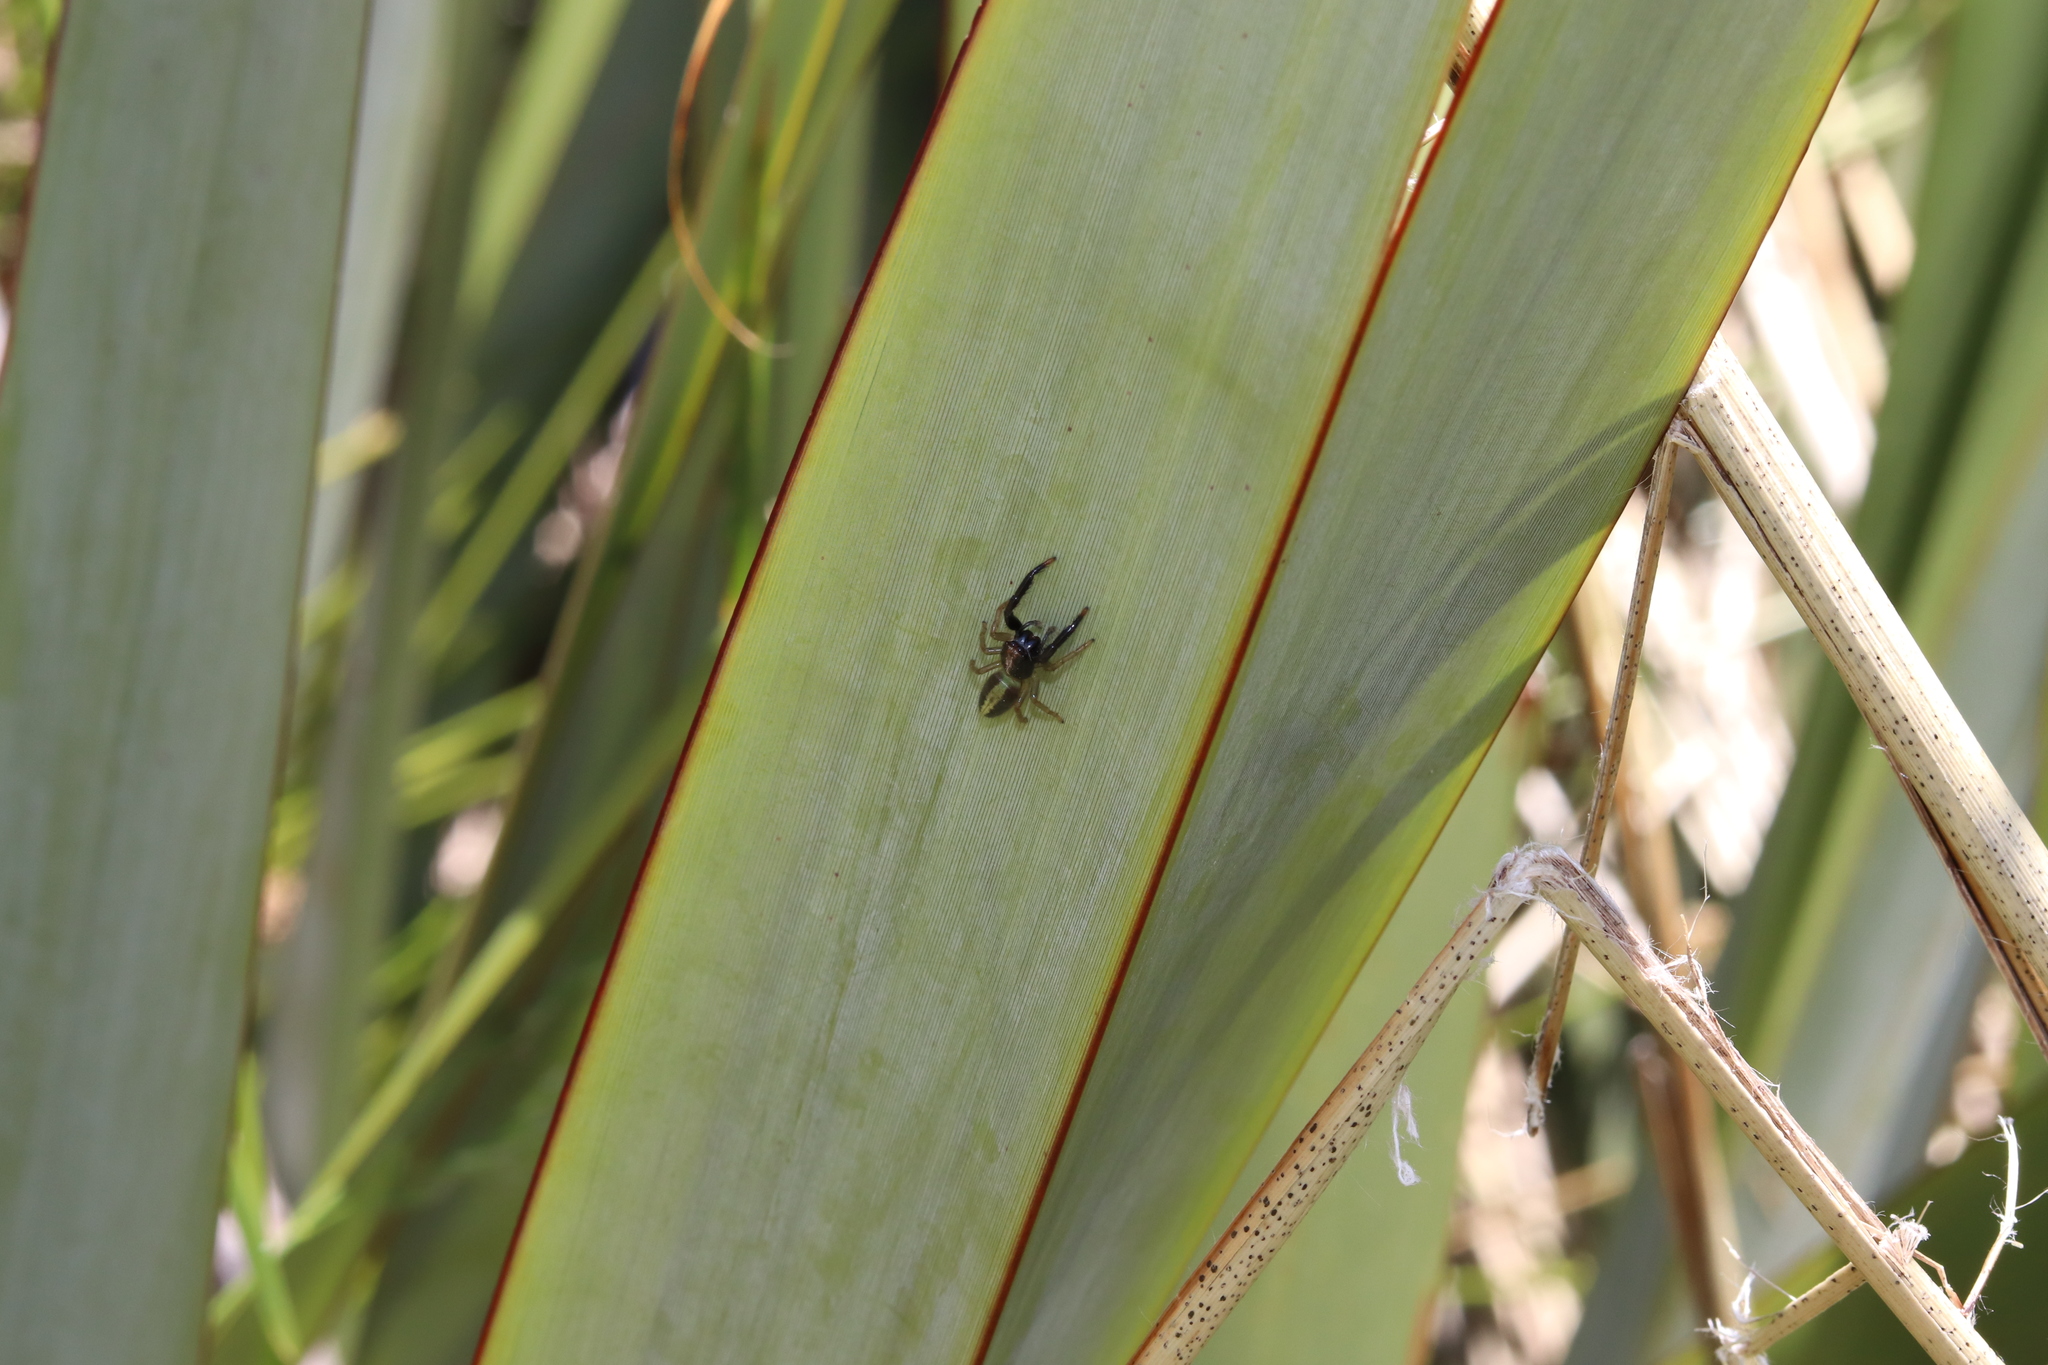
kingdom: Animalia
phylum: Arthropoda
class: Arachnida
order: Araneae
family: Salticidae
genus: Trite
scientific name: Trite planiceps
